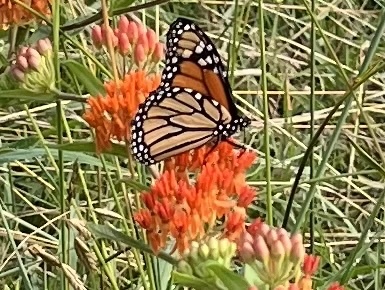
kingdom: Animalia
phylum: Arthropoda
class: Insecta
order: Lepidoptera
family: Nymphalidae
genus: Danaus
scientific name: Danaus plexippus
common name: Monarch
